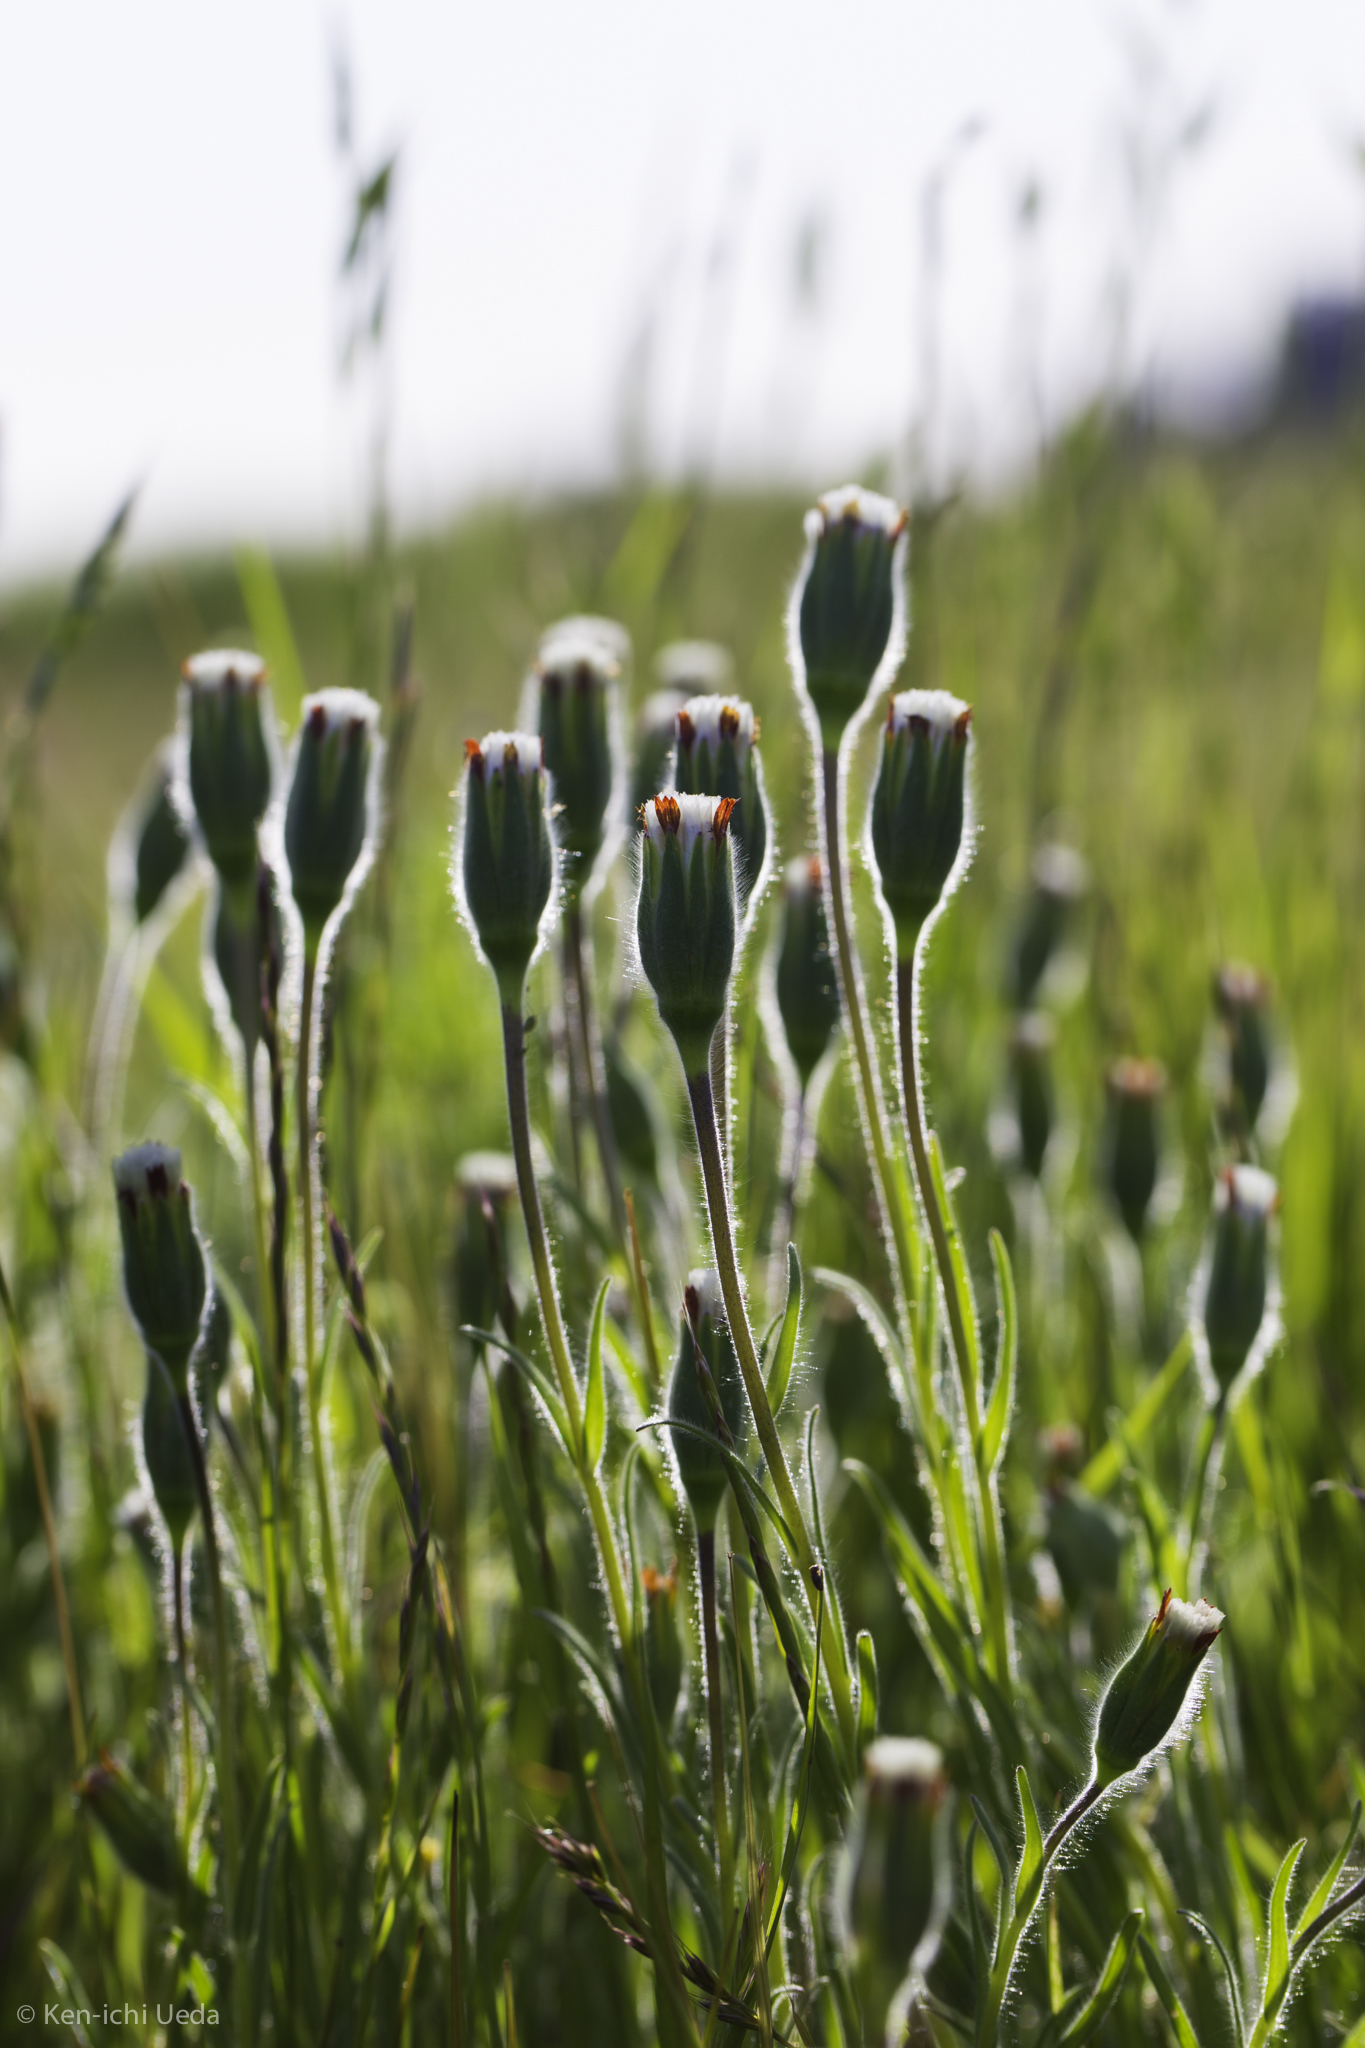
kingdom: Plantae
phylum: Tracheophyta
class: Magnoliopsida
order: Asterales
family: Asteraceae
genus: Achyrachaena
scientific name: Achyrachaena mollis
